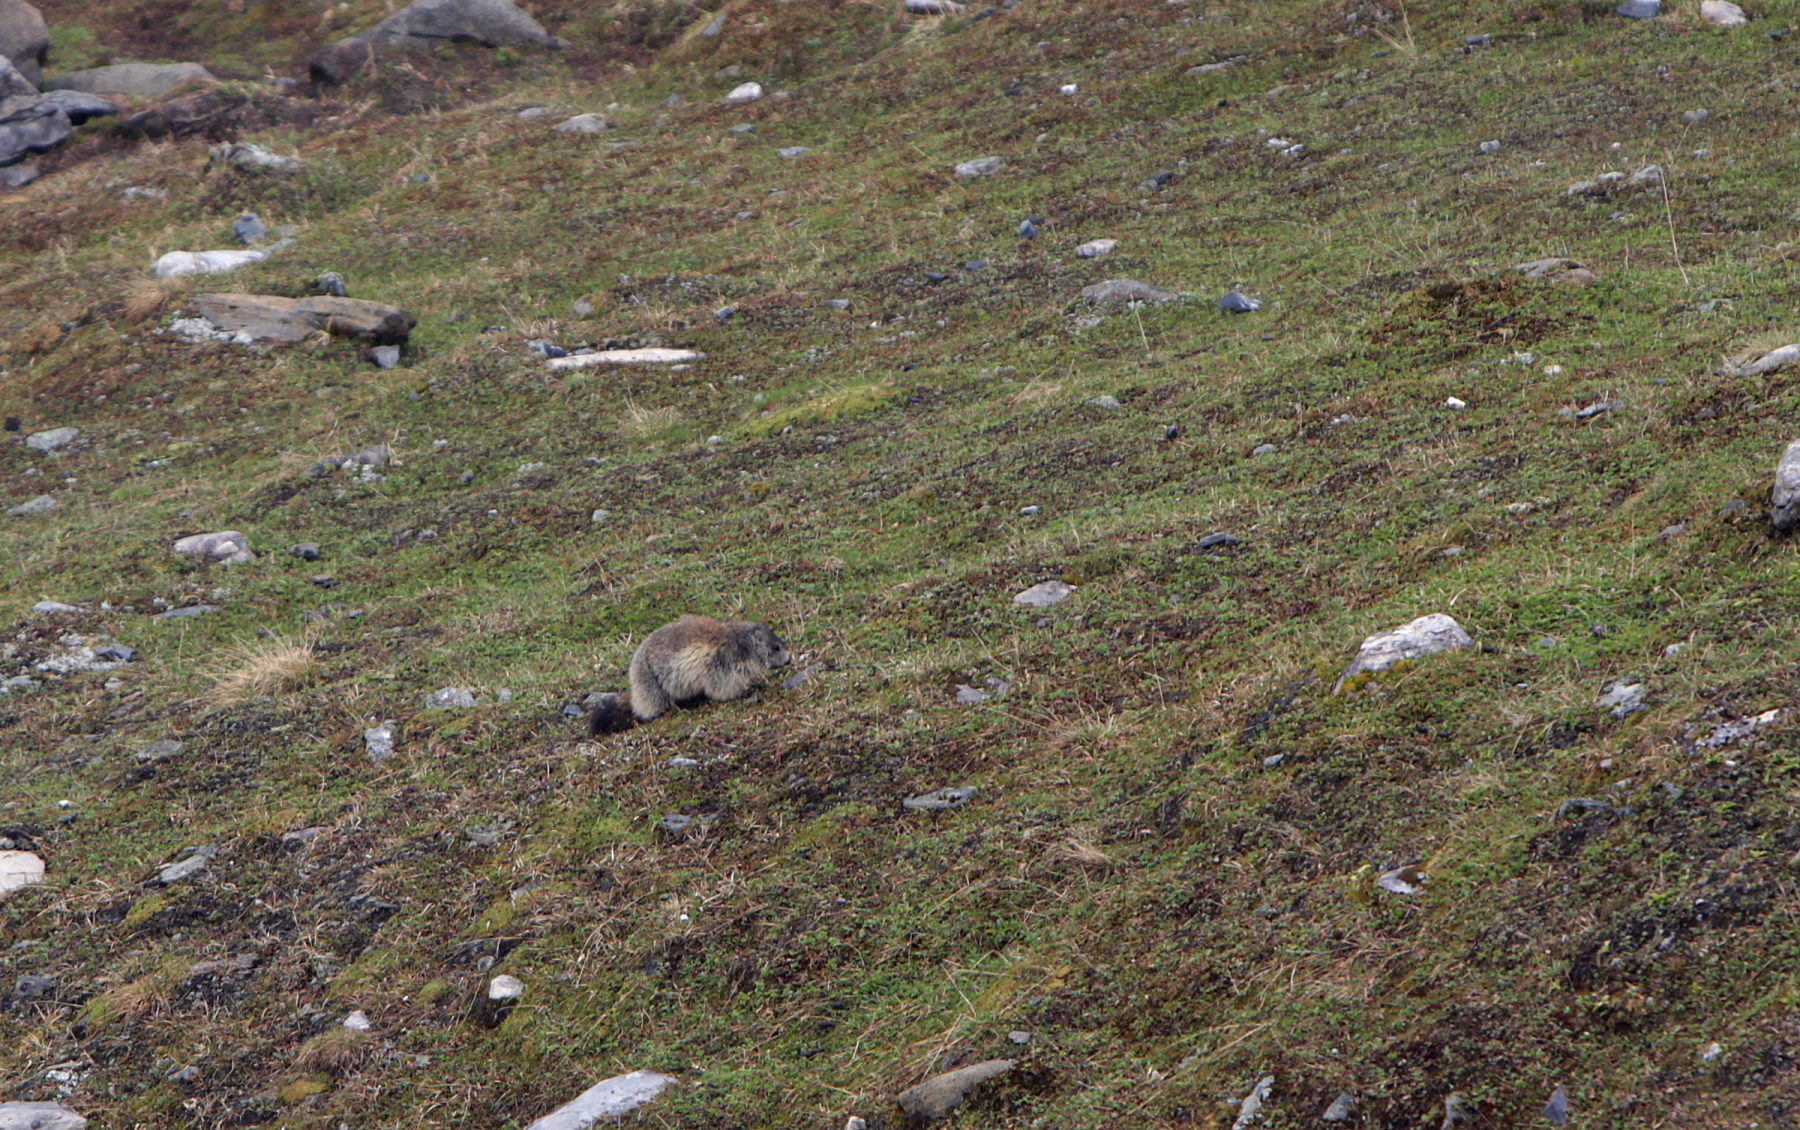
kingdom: Animalia
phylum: Chordata
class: Mammalia
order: Rodentia
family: Sciuridae
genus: Marmota
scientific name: Marmota marmota
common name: Alpine marmot
